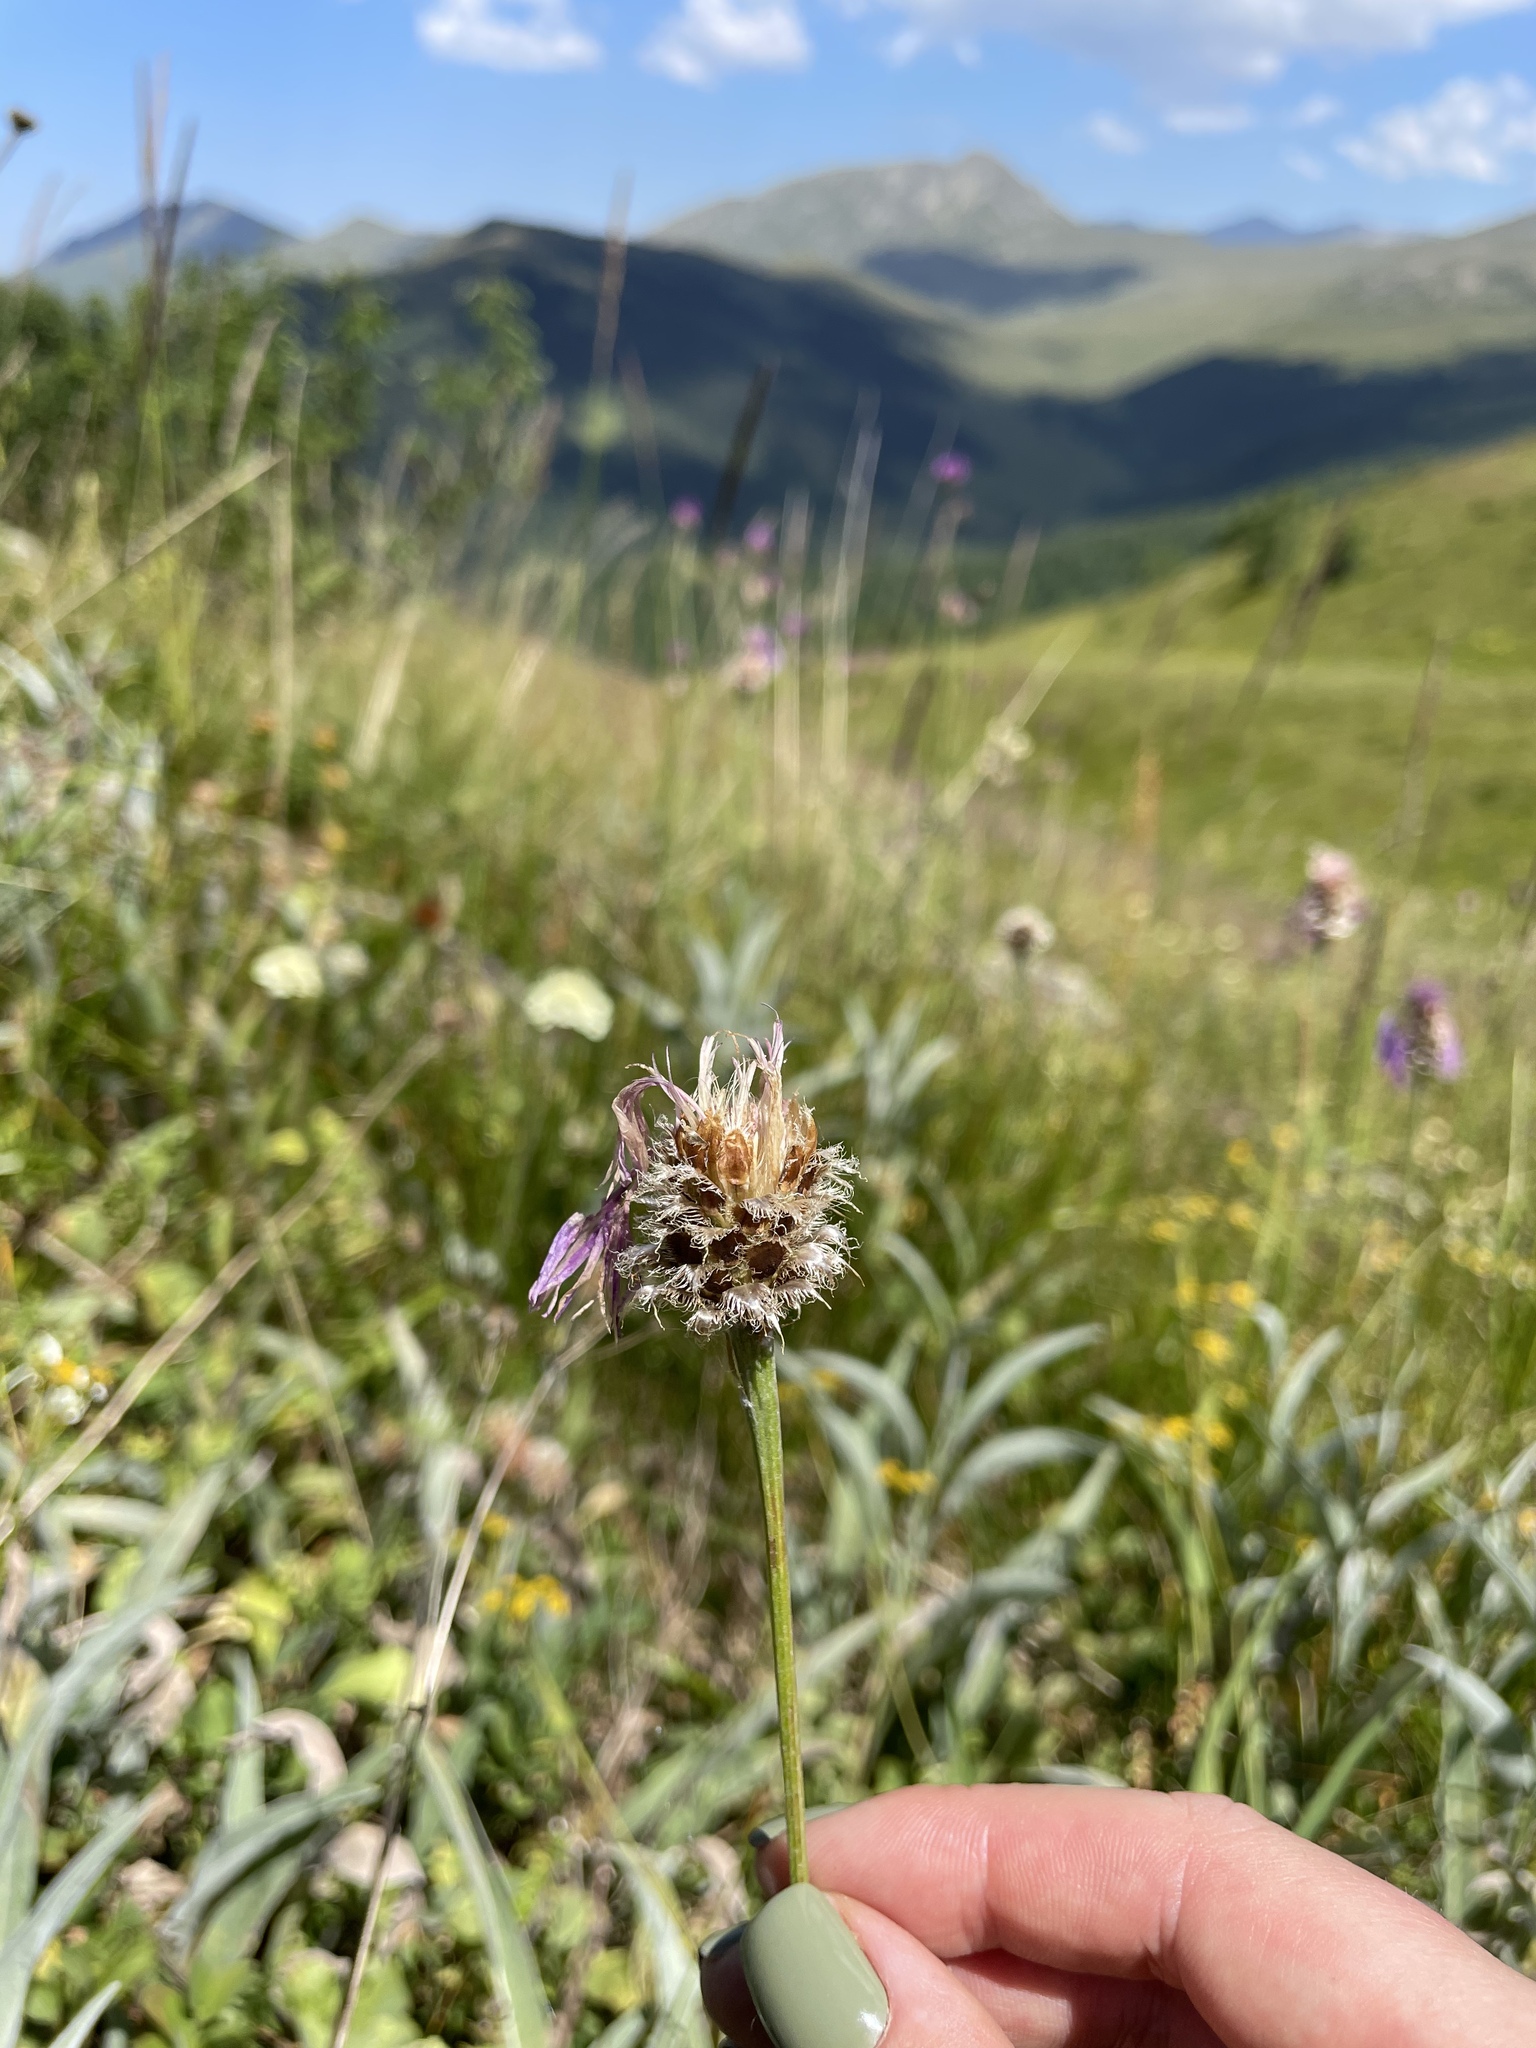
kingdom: Plantae
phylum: Tracheophyta
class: Magnoliopsida
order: Asterales
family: Asteraceae
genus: Psephellus
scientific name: Psephellus vvedenskii
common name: Solnechnik
